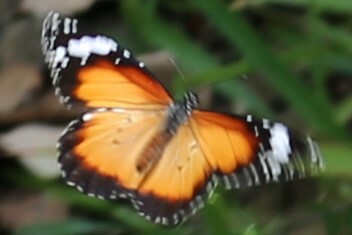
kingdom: Animalia
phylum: Arthropoda
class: Insecta
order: Lepidoptera
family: Nymphalidae
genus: Danaus
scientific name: Danaus chrysippus
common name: Plain tiger
